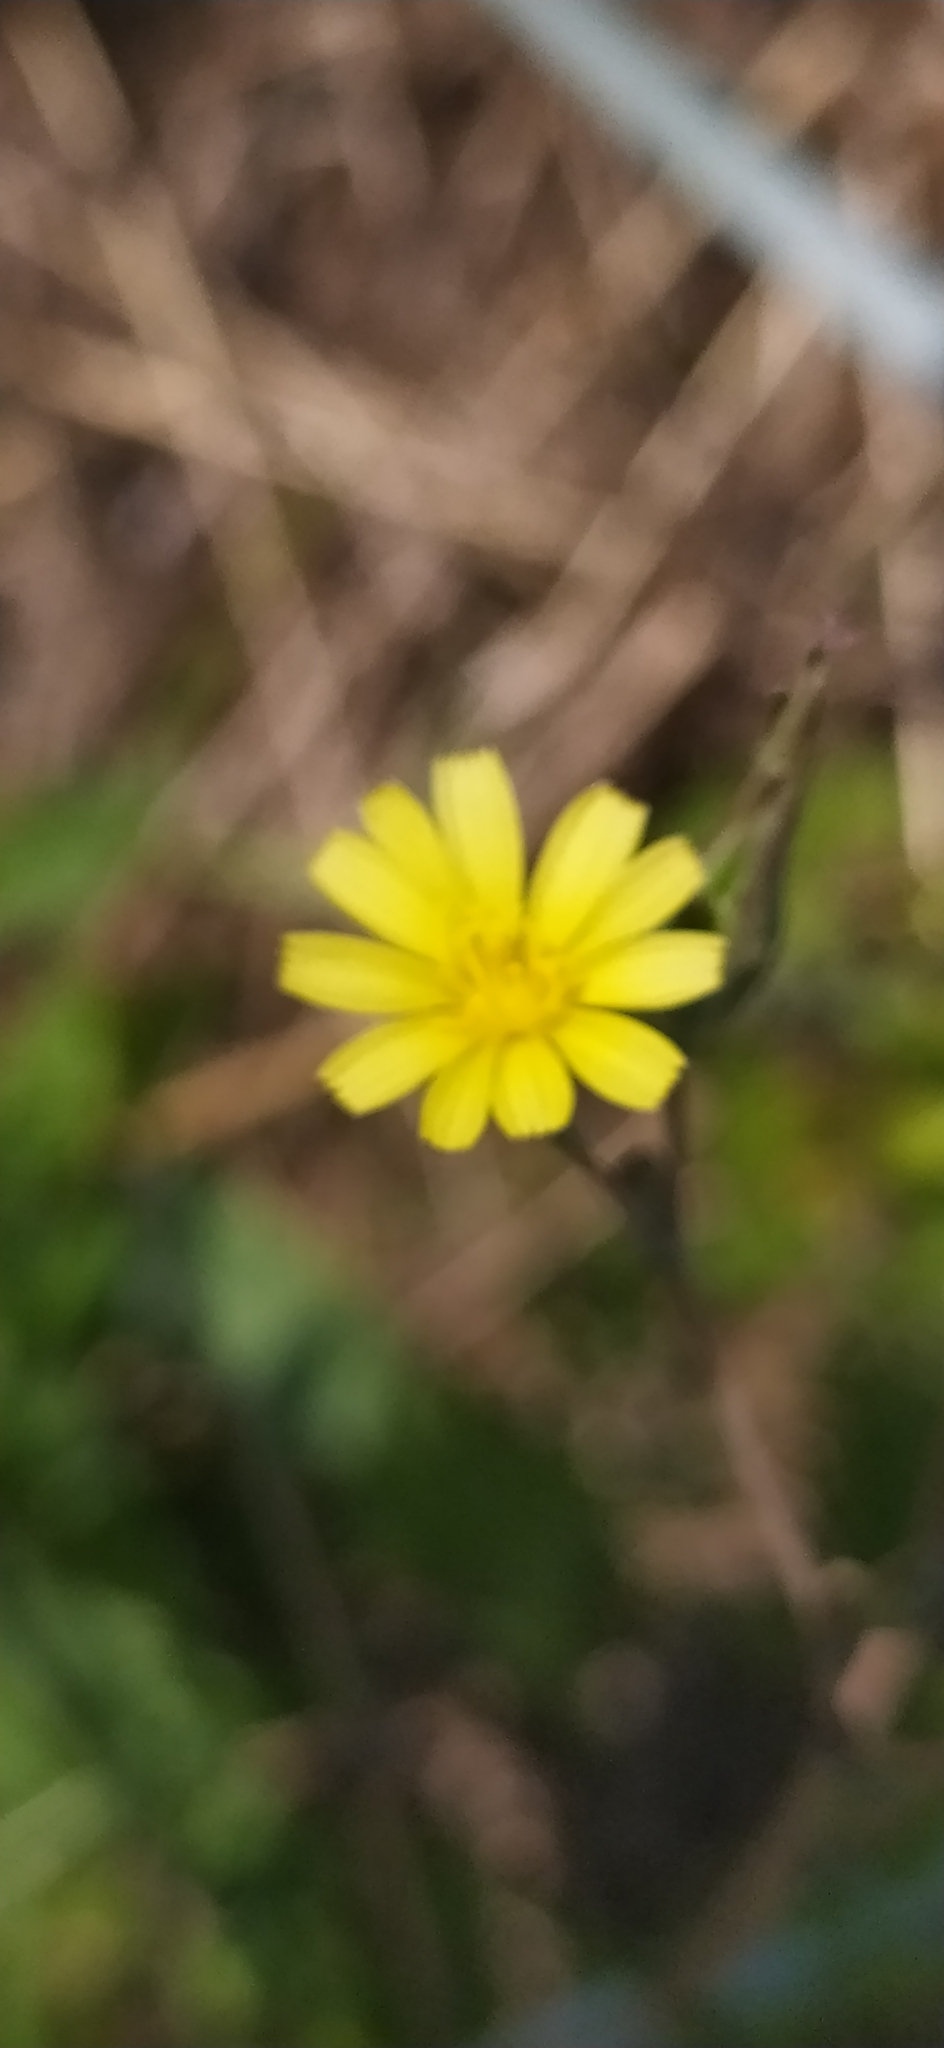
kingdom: Plantae
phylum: Tracheophyta
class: Magnoliopsida
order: Asterales
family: Asteraceae
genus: Lactuca
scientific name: Lactuca serriola
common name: Prickly lettuce
